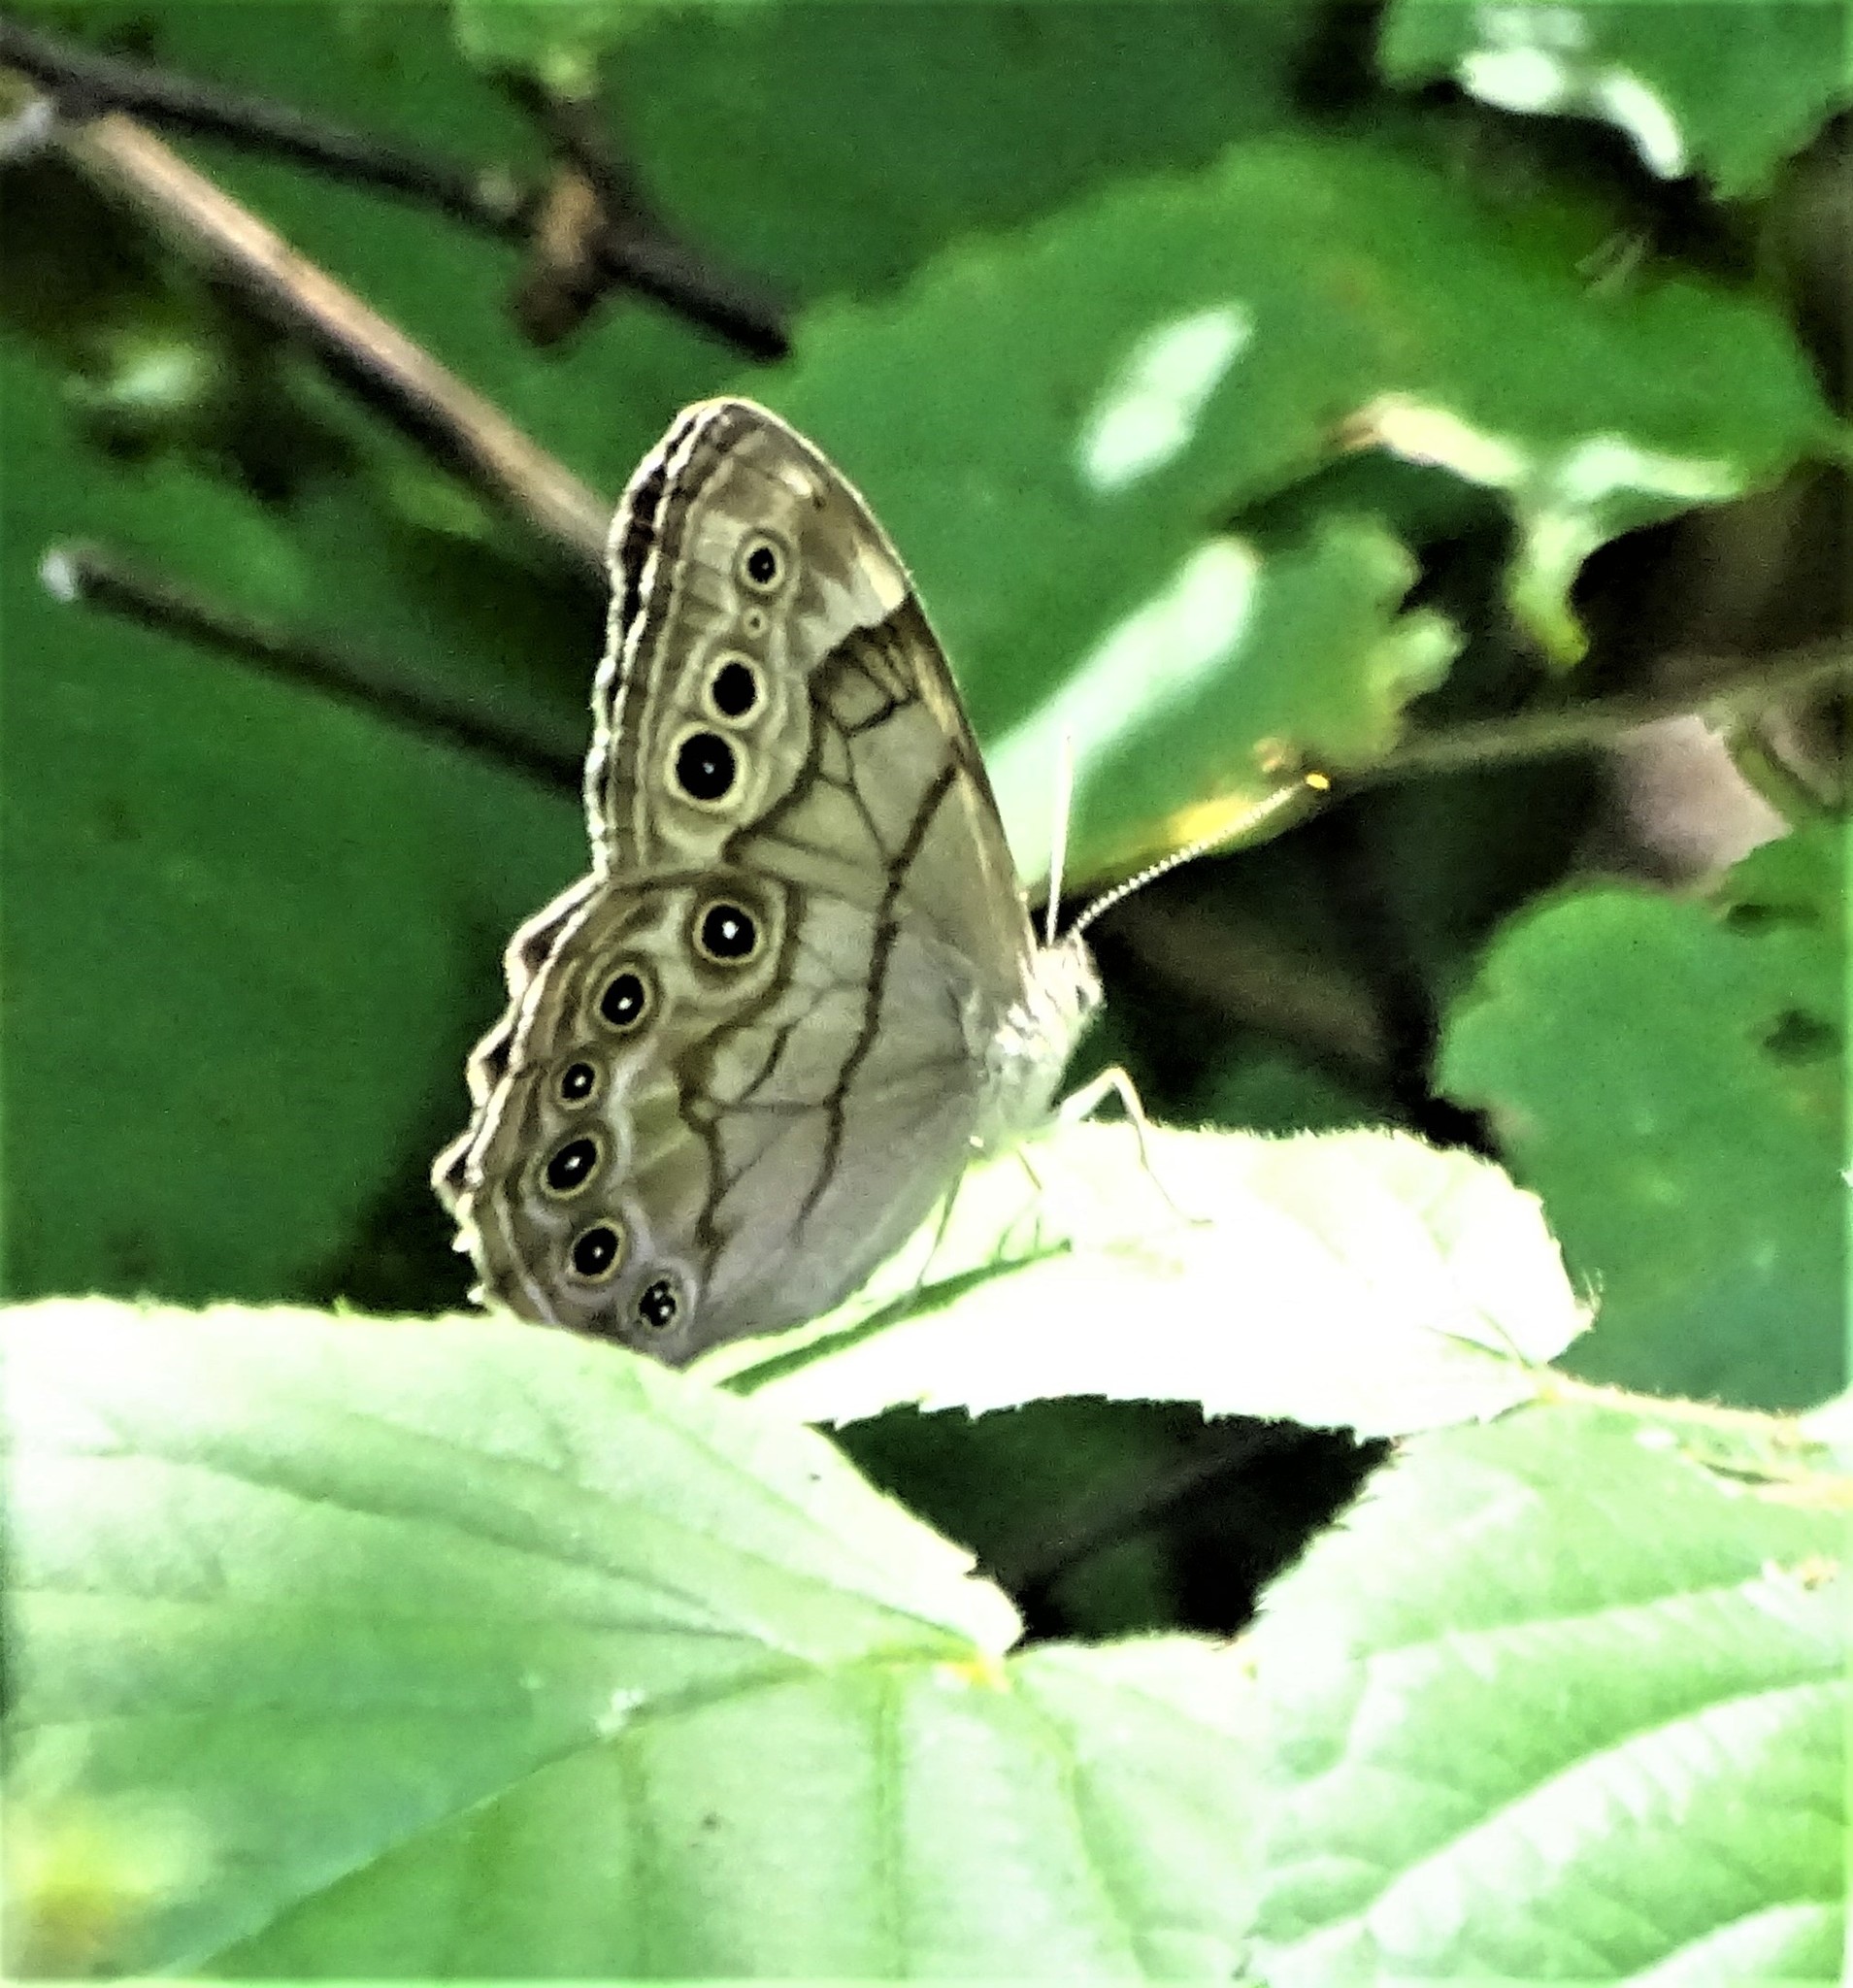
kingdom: Animalia
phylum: Arthropoda
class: Insecta
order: Lepidoptera
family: Nymphalidae
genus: Lethe
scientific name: Lethe anthedon
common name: Northern pearly-eye
